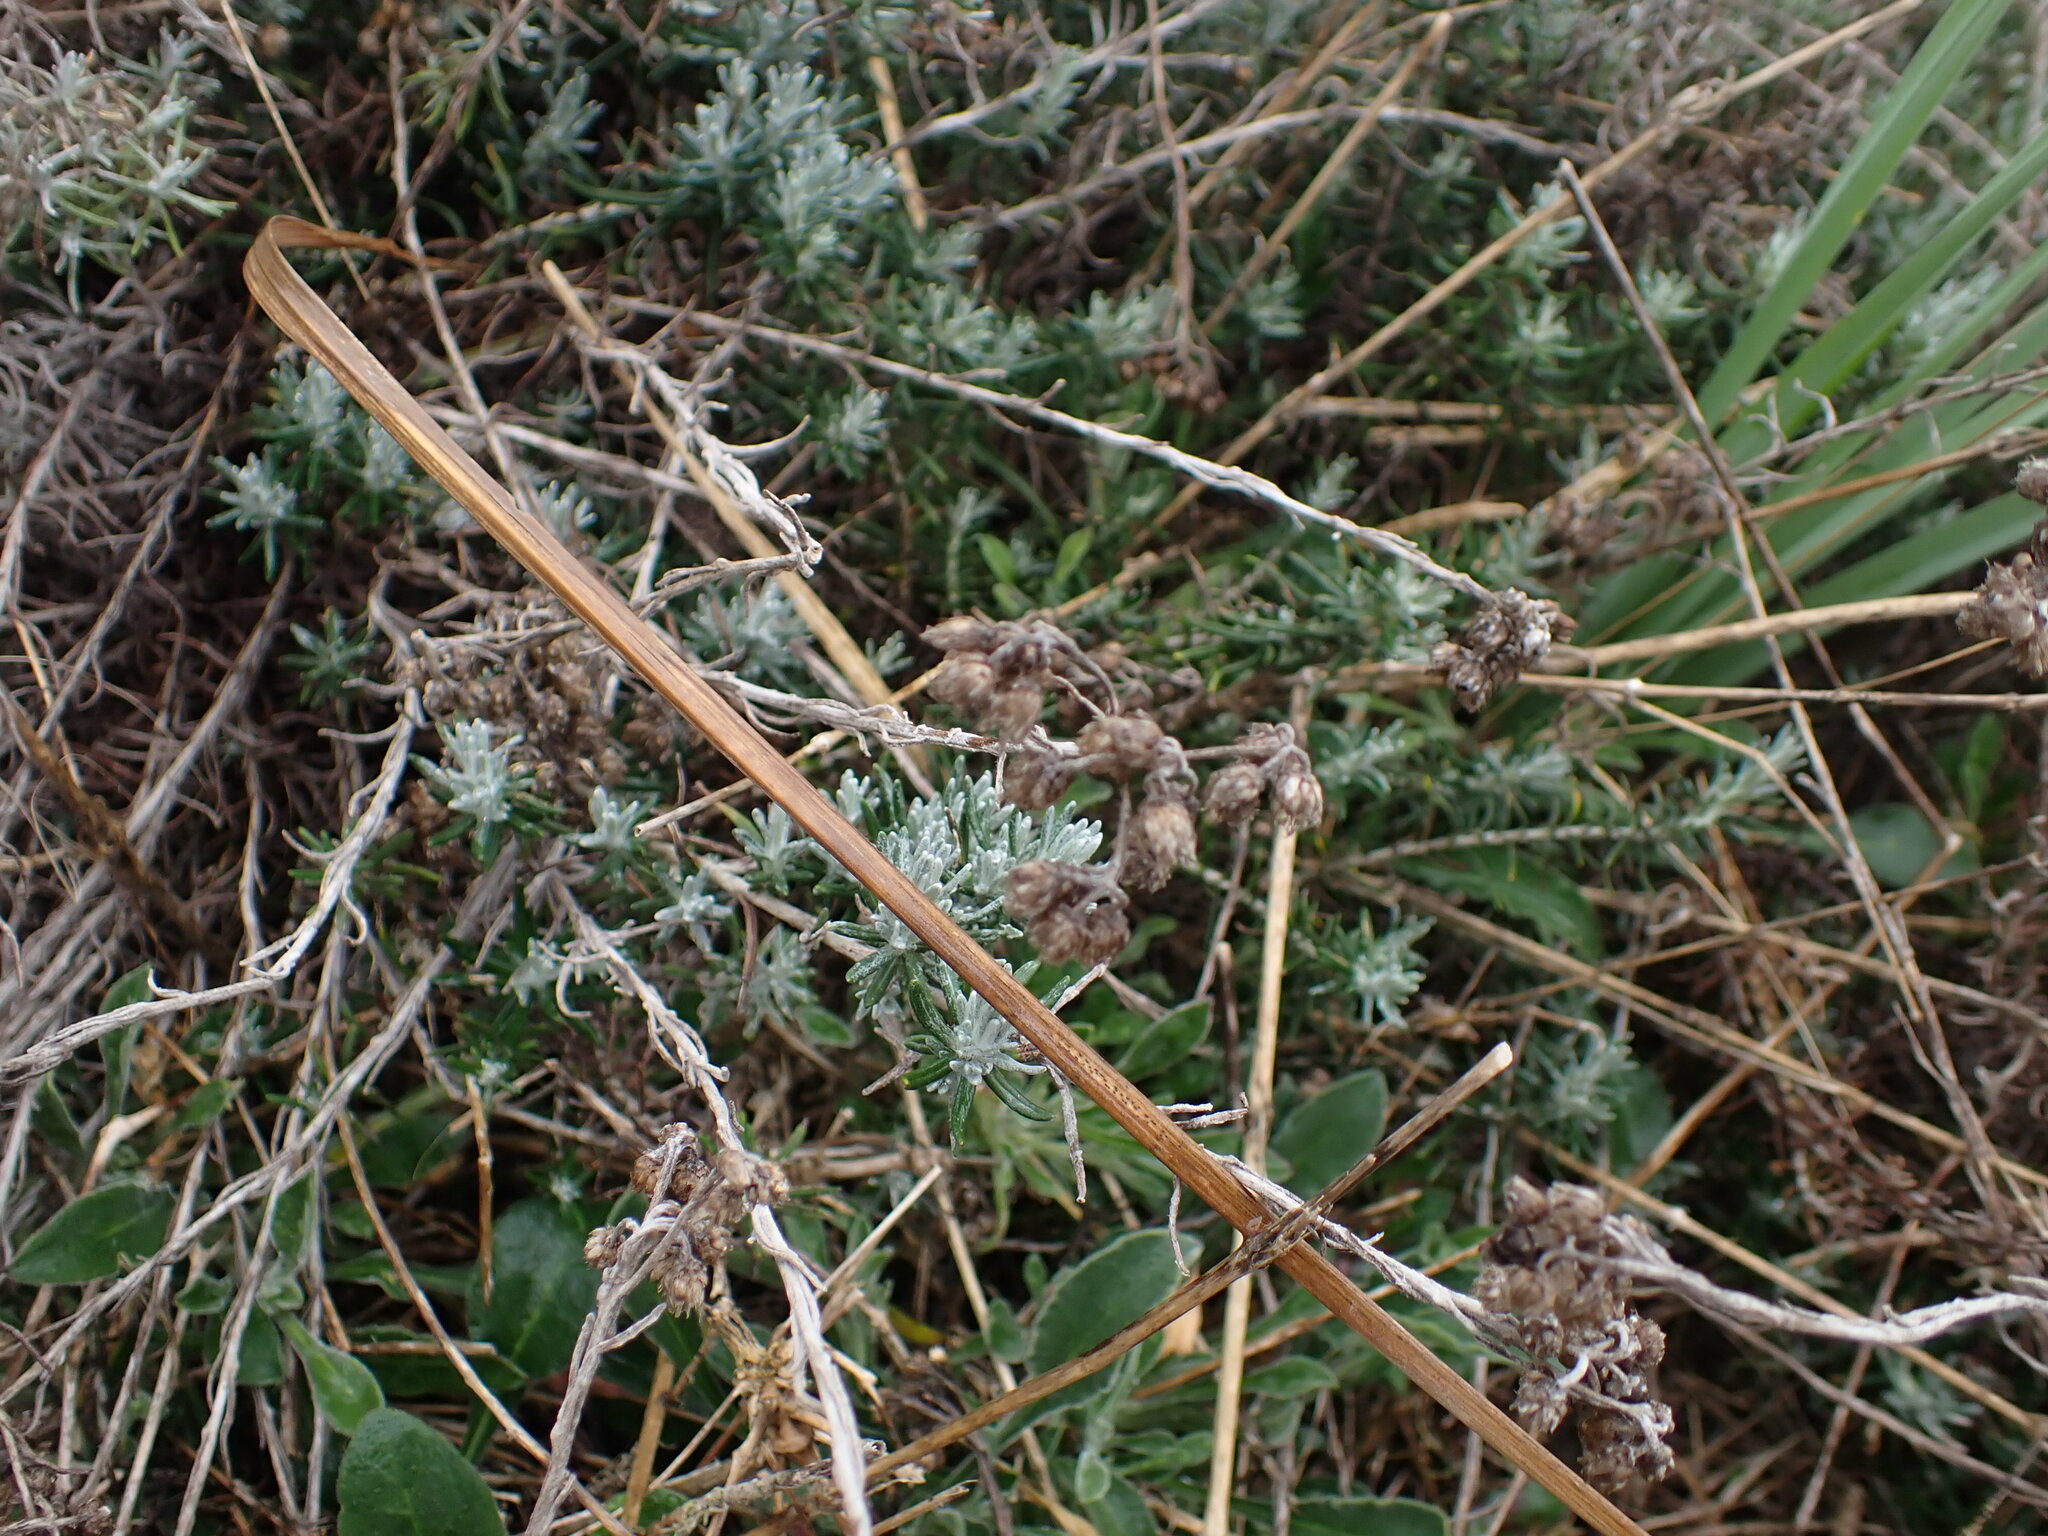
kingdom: Plantae
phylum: Tracheophyta
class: Magnoliopsida
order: Asterales
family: Asteraceae
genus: Helichrysum
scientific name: Helichrysum stoechas
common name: Goldilocks
